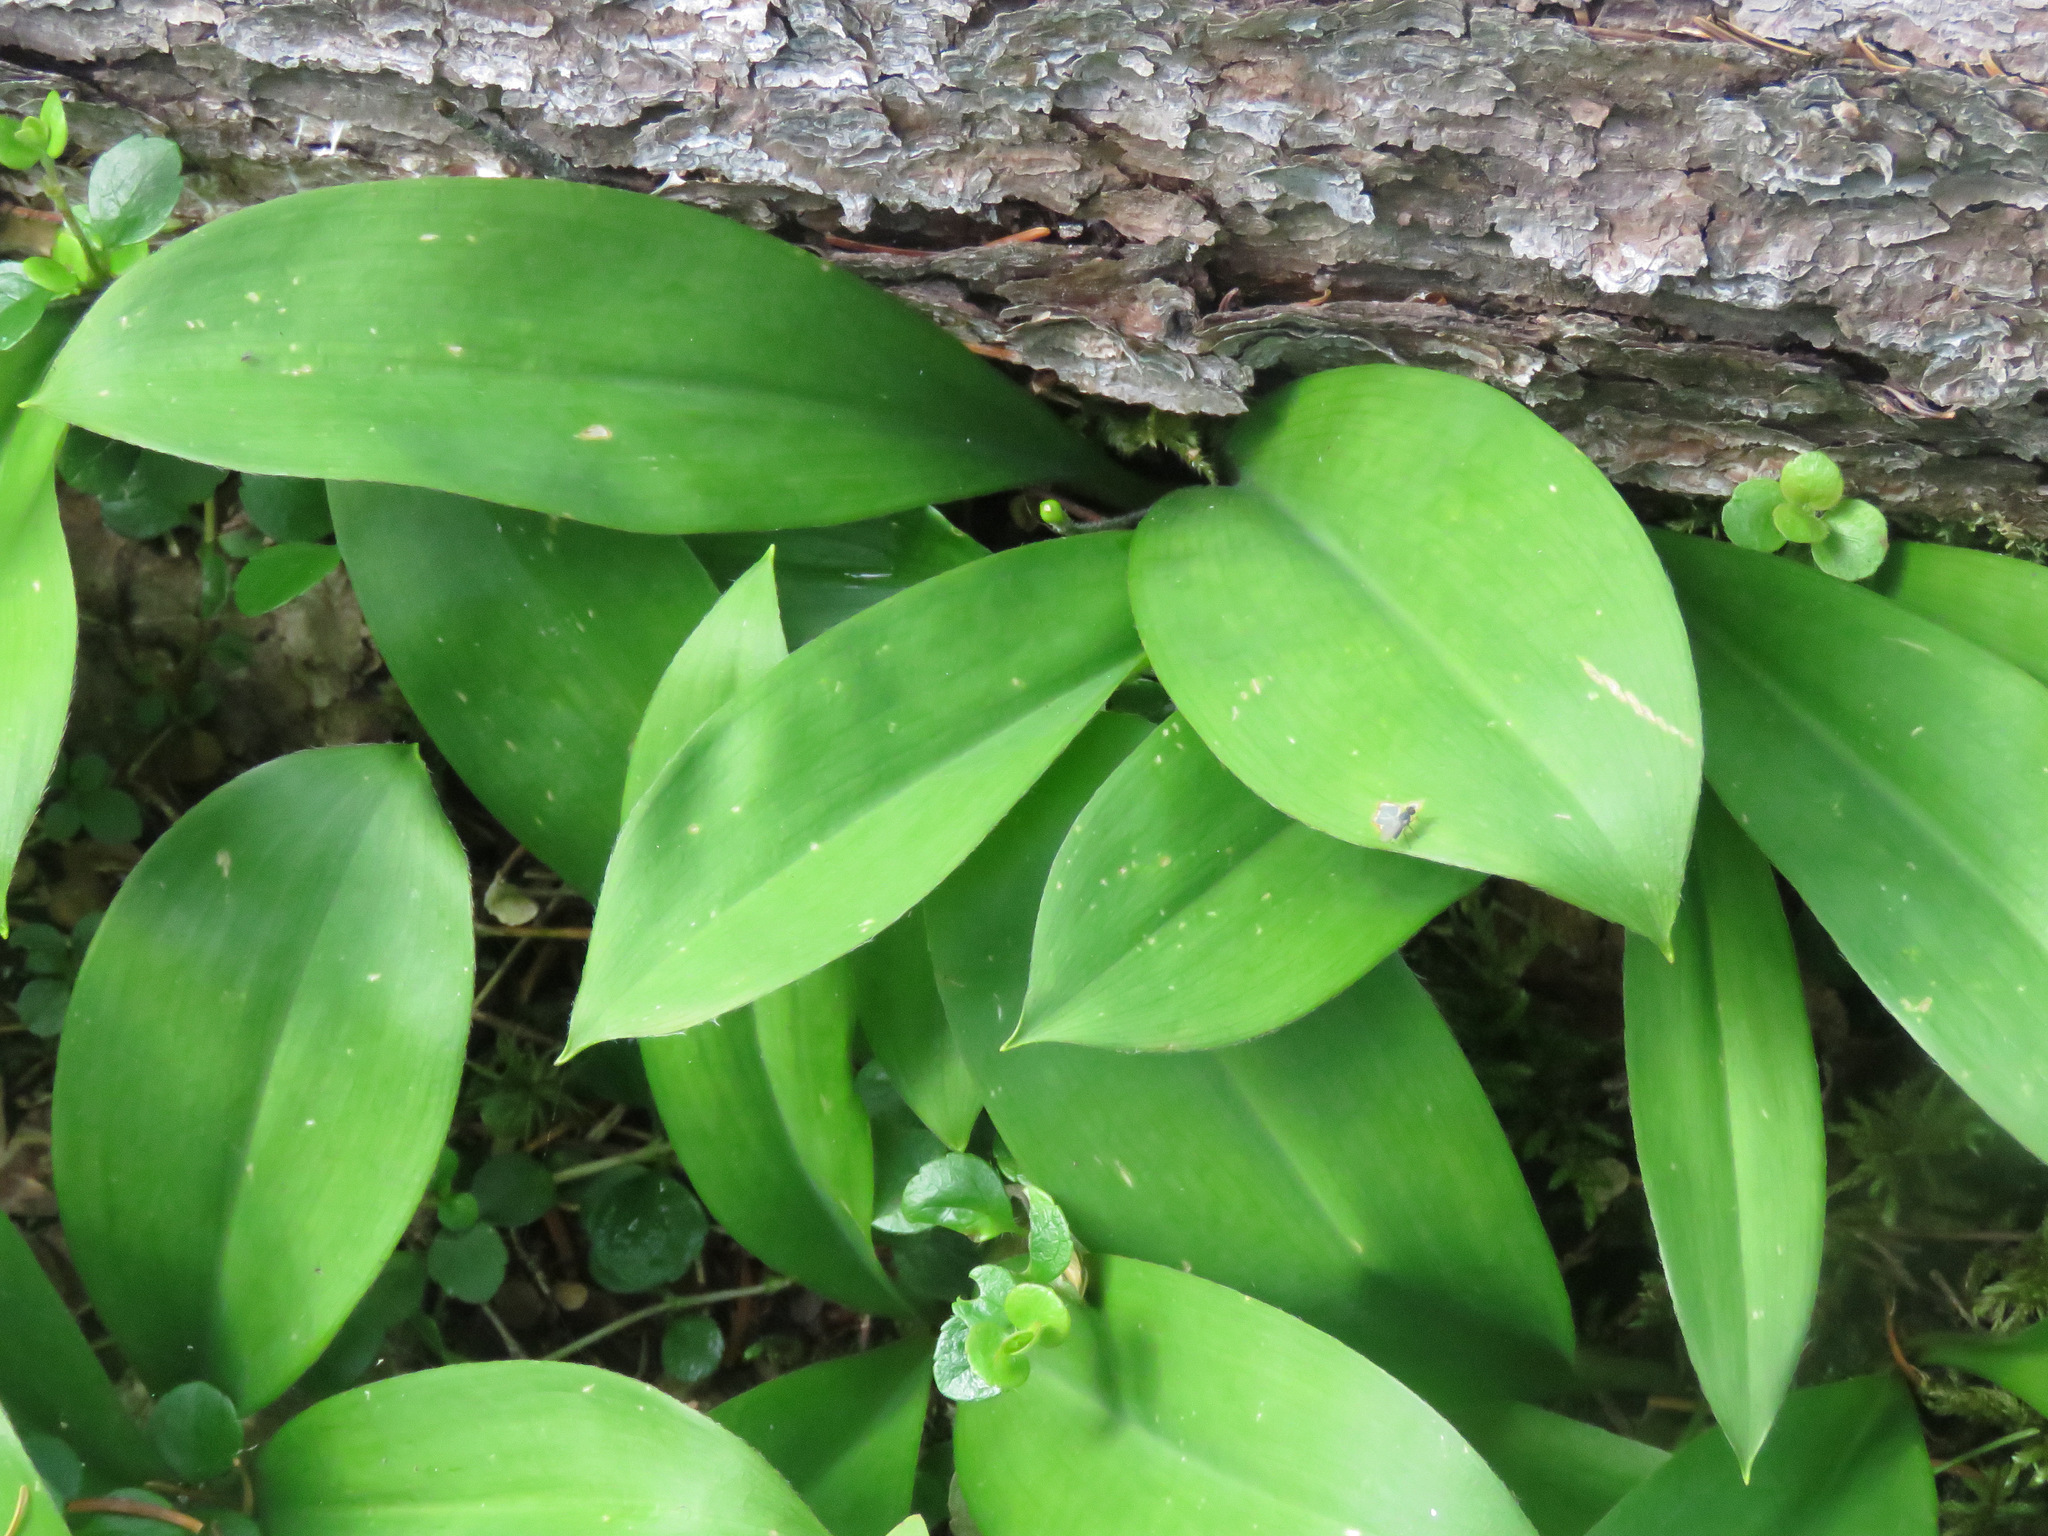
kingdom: Plantae
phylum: Tracheophyta
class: Liliopsida
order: Liliales
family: Liliaceae
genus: Clintonia
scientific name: Clintonia uniflora
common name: Queen's cup
